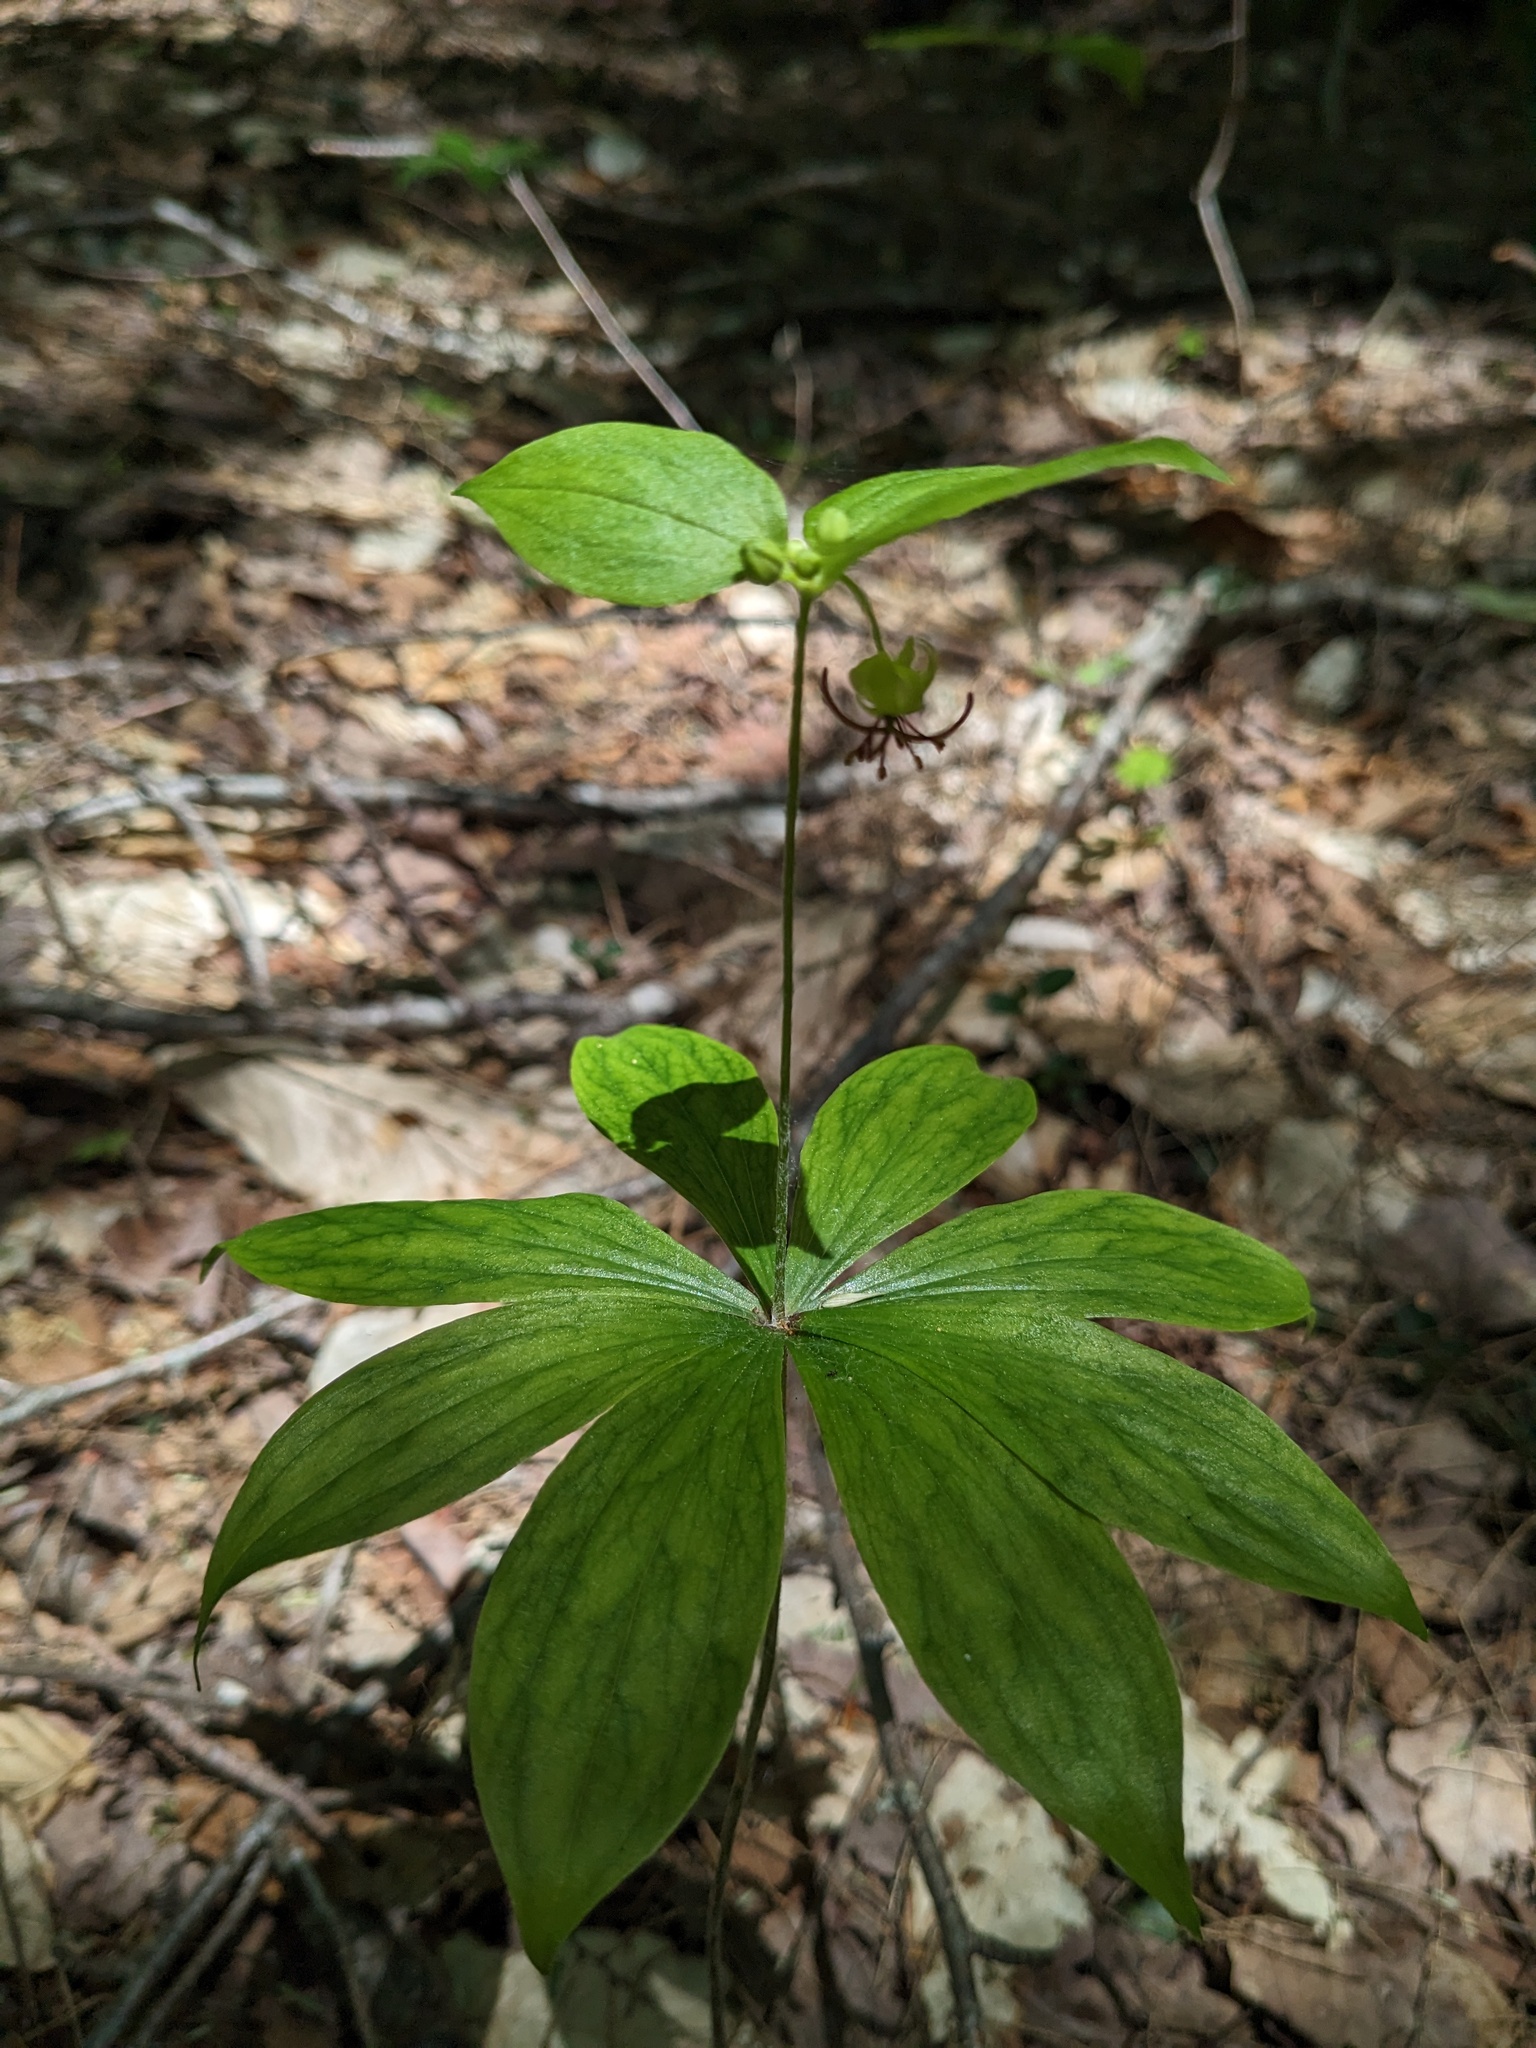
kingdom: Plantae
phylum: Tracheophyta
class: Liliopsida
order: Liliales
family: Liliaceae
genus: Medeola
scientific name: Medeola virginiana
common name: Indian cucumber-root
